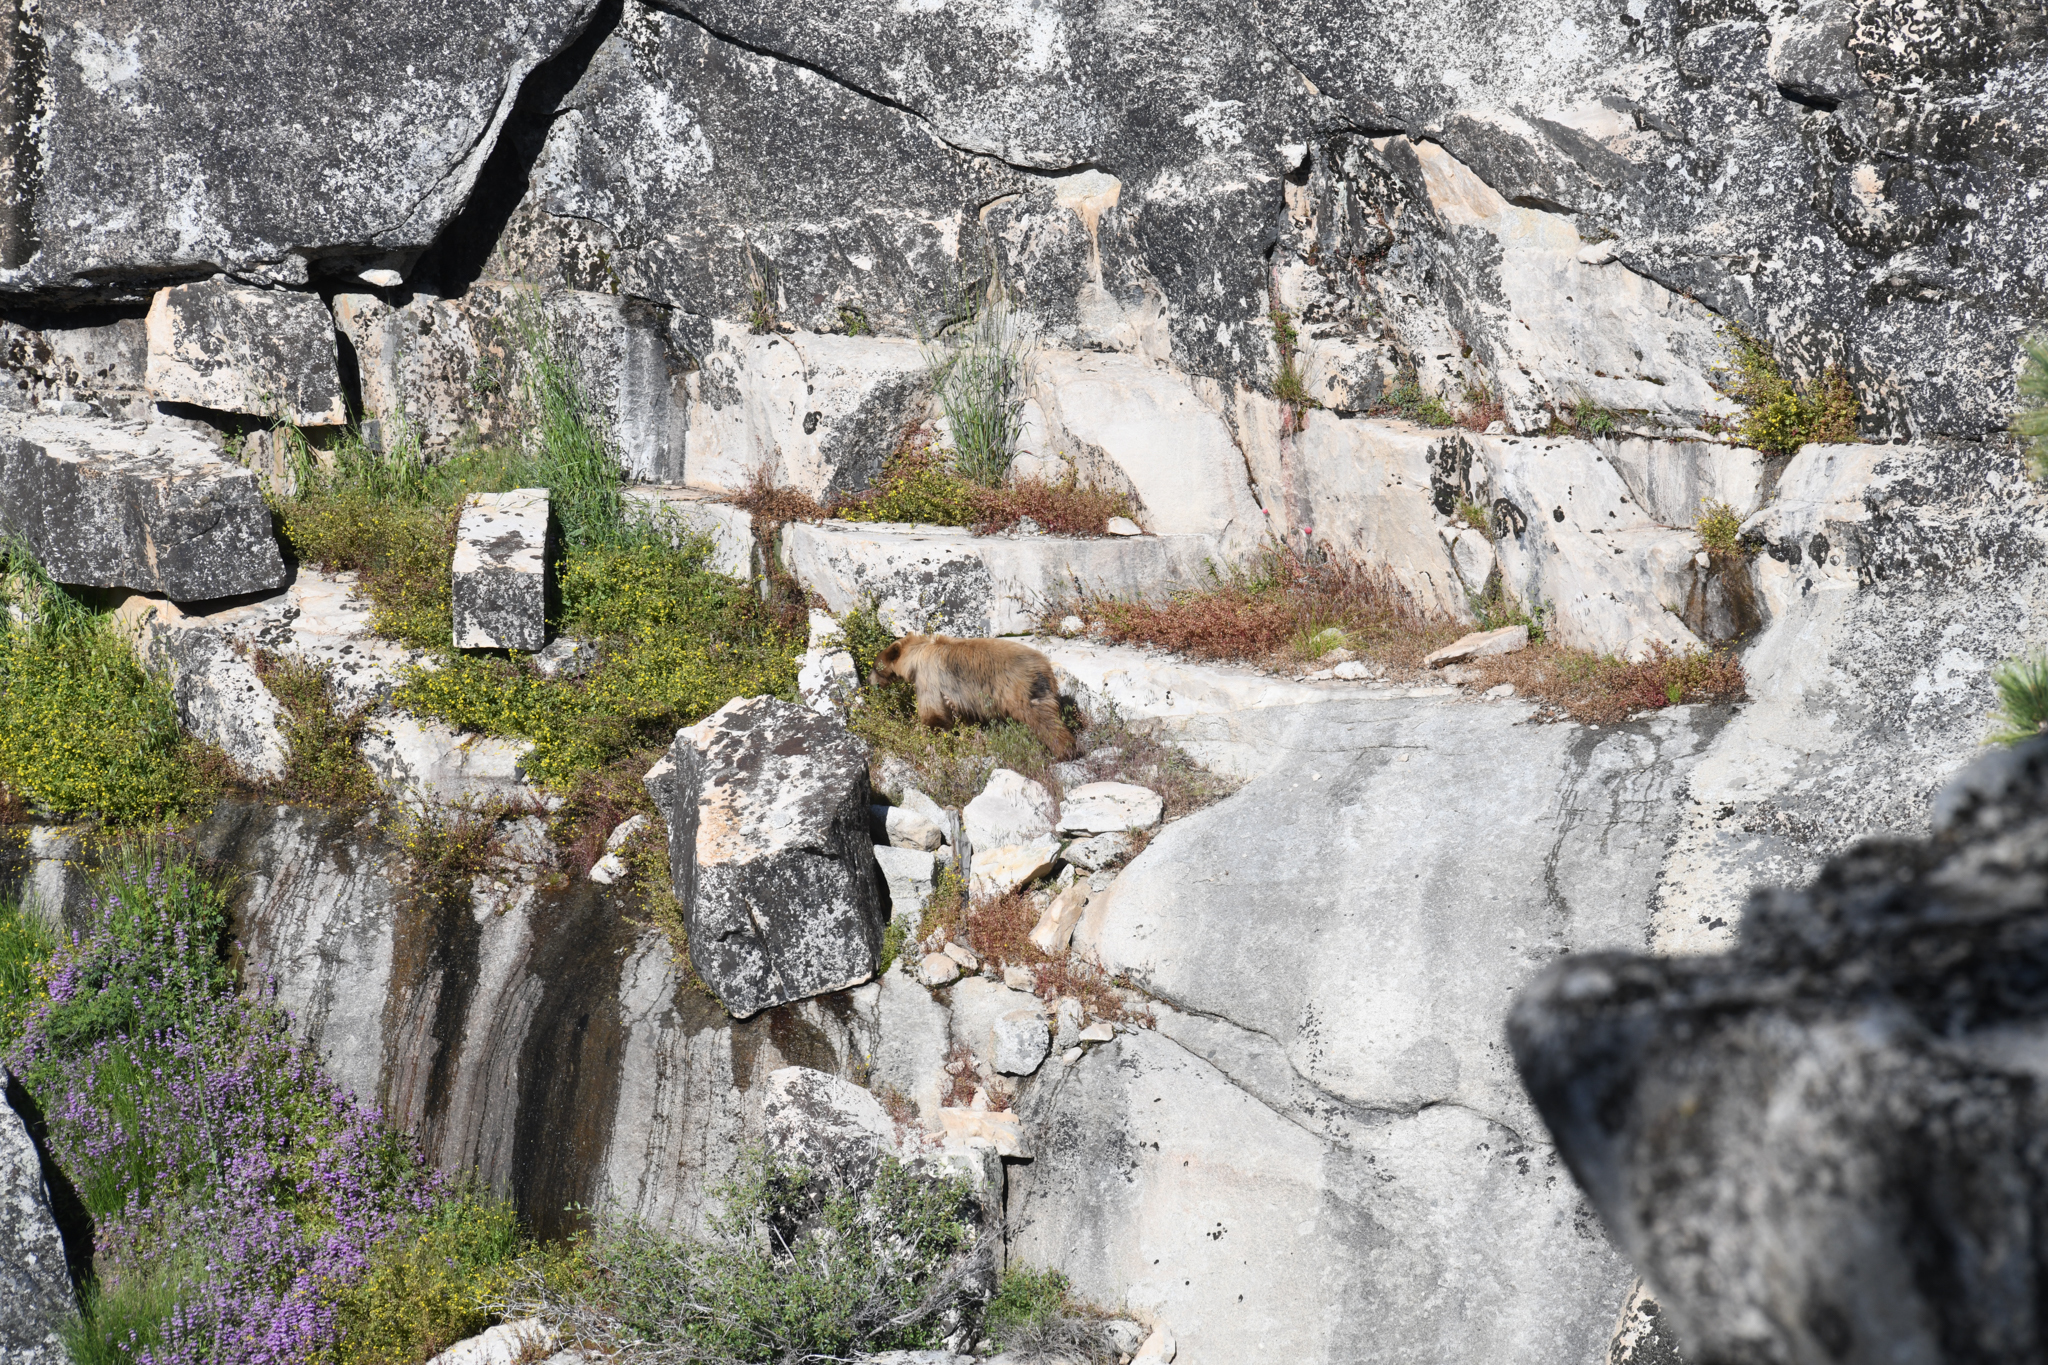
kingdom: Animalia
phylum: Chordata
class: Mammalia
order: Carnivora
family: Ursidae
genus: Ursus
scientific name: Ursus americanus
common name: American black bear
